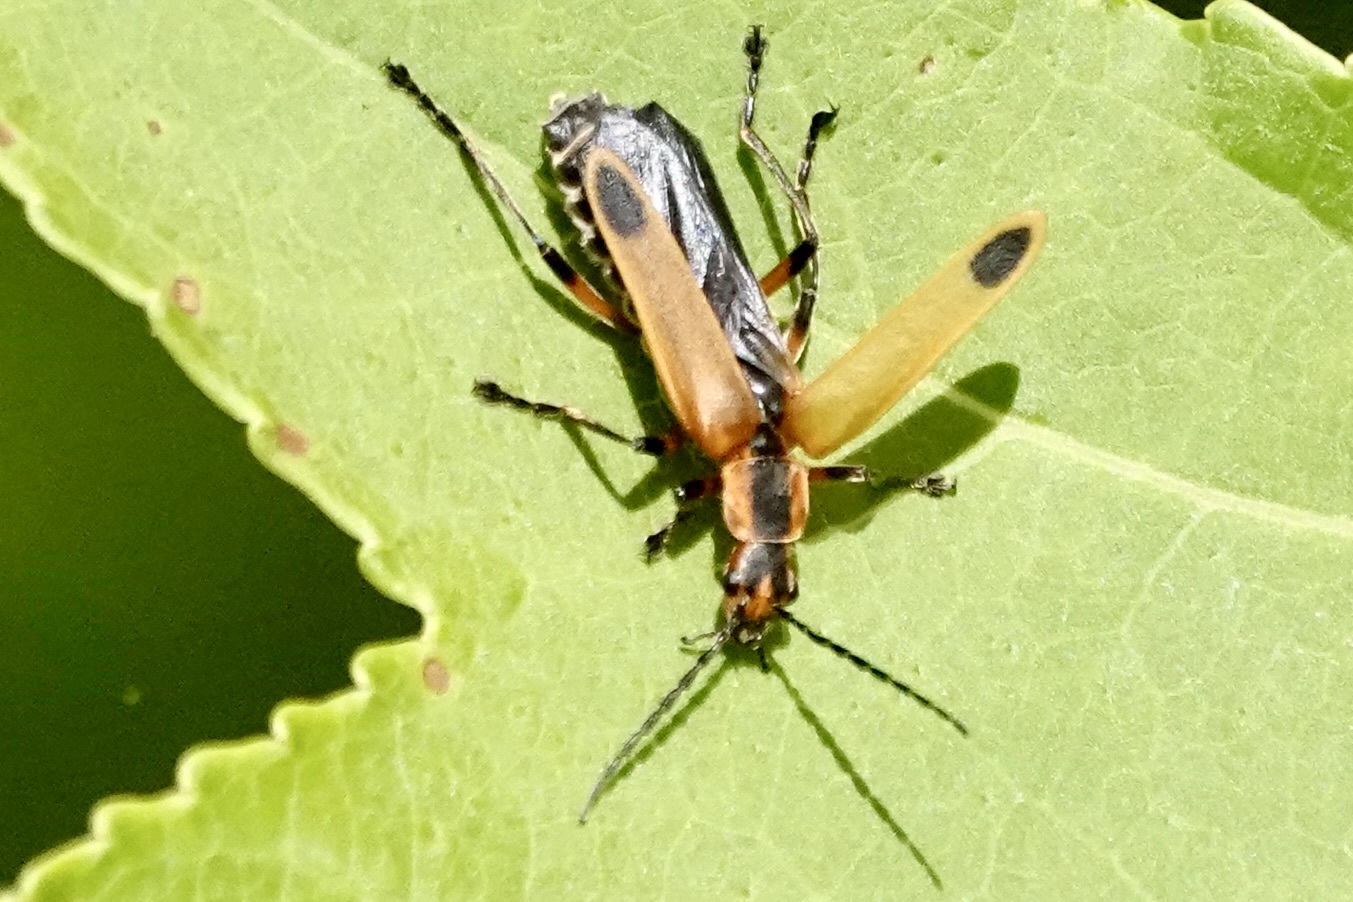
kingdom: Animalia
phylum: Arthropoda
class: Insecta
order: Coleoptera
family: Cantharidae
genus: Chauliognathus
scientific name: Chauliognathus marginatus
